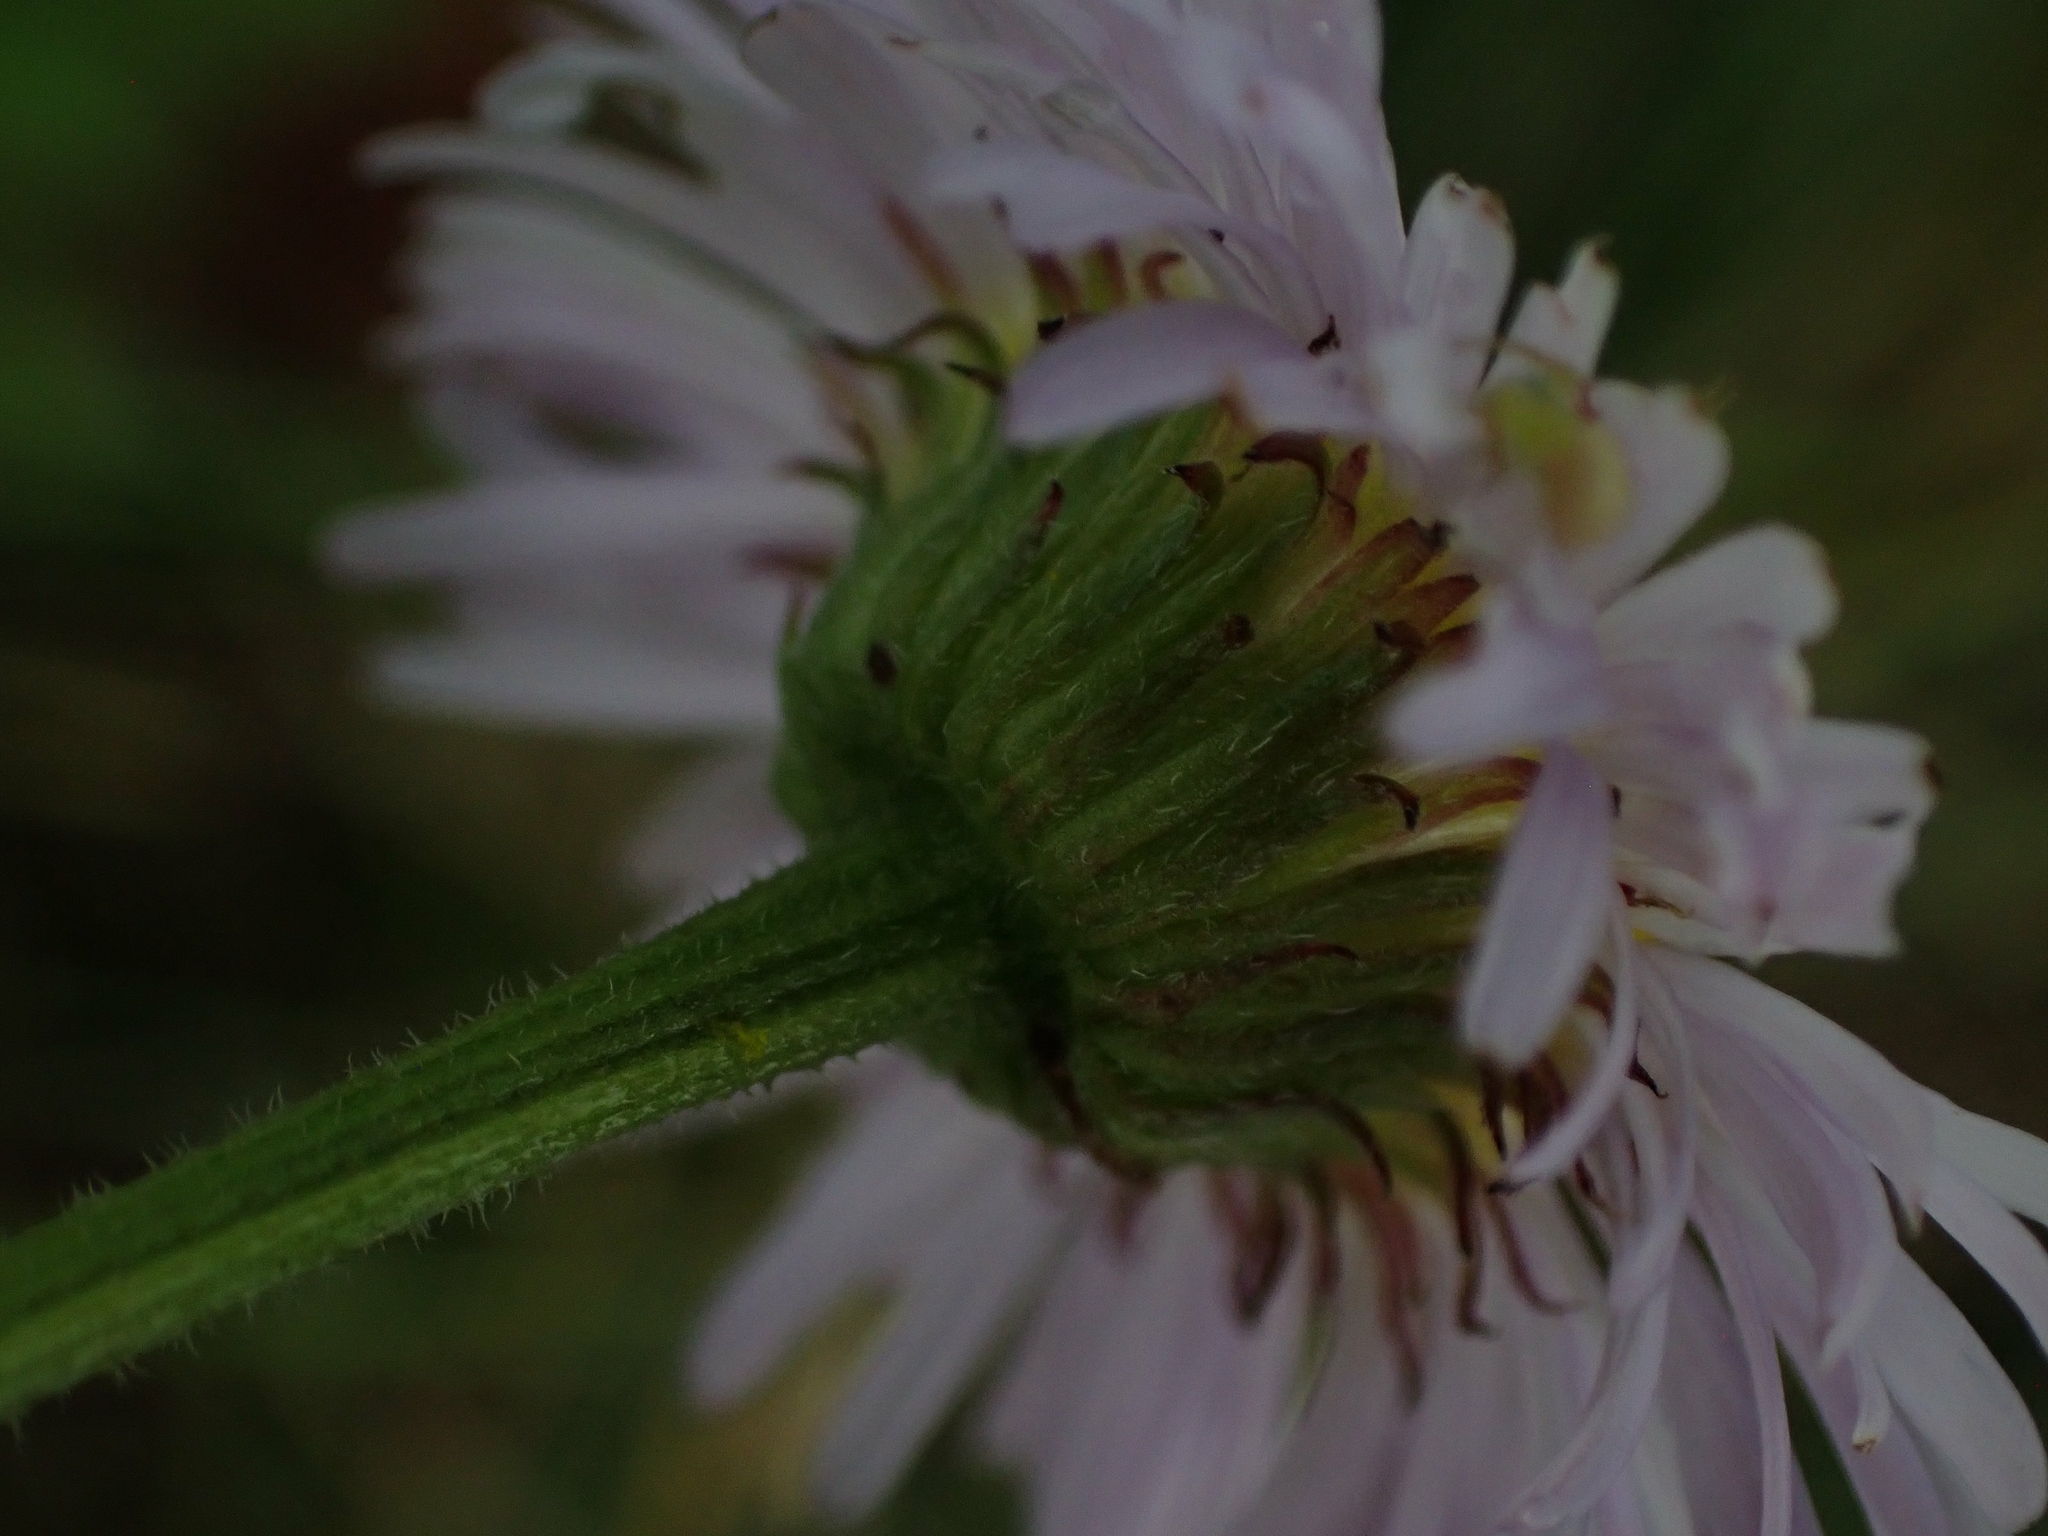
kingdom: Plantae
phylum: Tracheophyta
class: Magnoliopsida
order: Asterales
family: Asteraceae
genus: Erigeron
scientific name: Erigeron caespitosus
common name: Tufted fleabane
